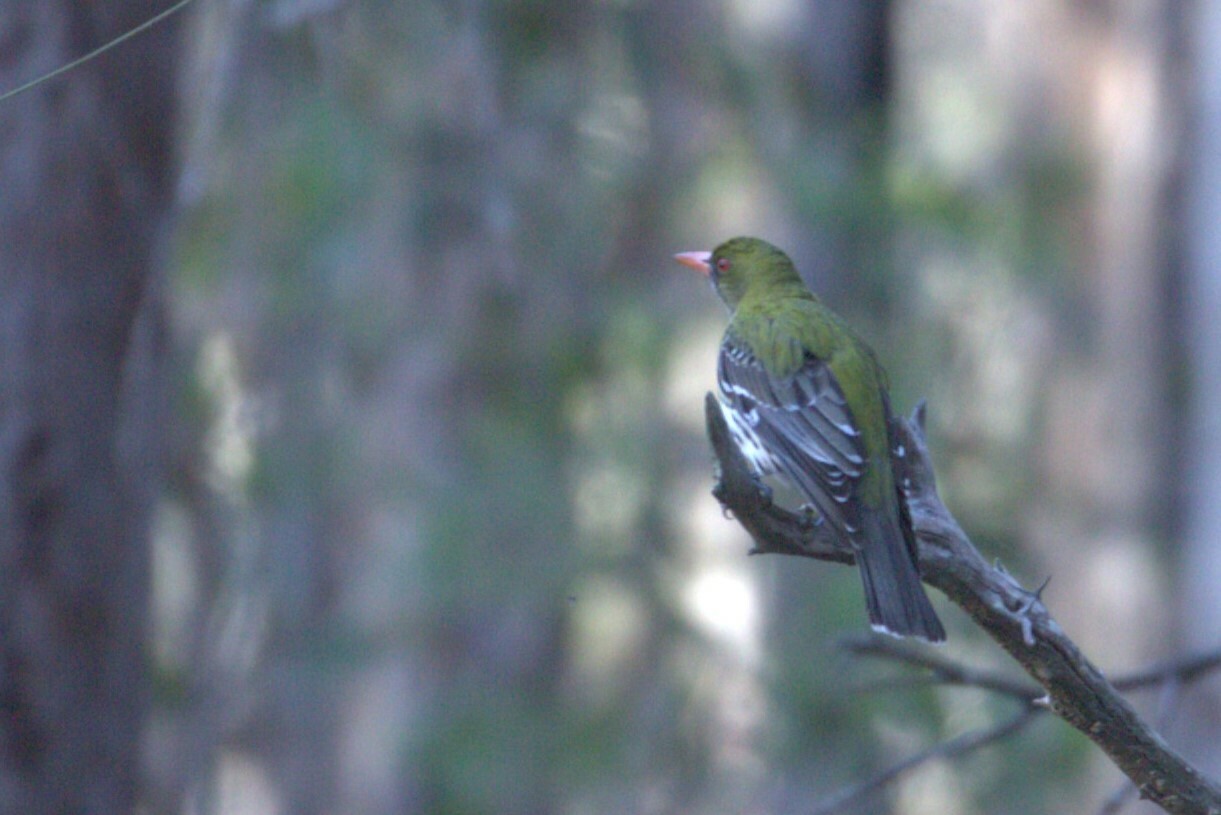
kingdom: Animalia
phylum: Chordata
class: Aves
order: Passeriformes
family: Oriolidae
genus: Oriolus
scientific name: Oriolus sagittatus
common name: Olive-backed oriole
